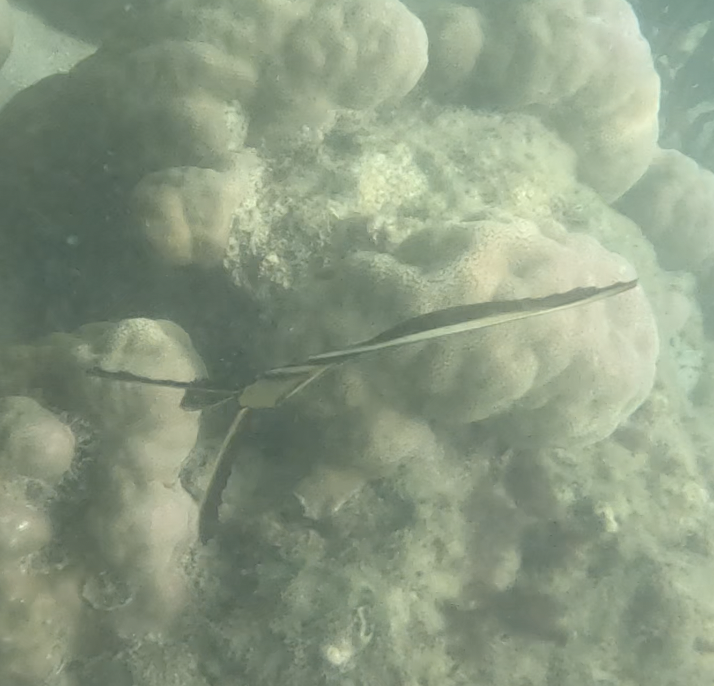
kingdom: Animalia
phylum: Chordata
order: Perciformes
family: Ephippidae
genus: Platax
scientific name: Platax boersii
